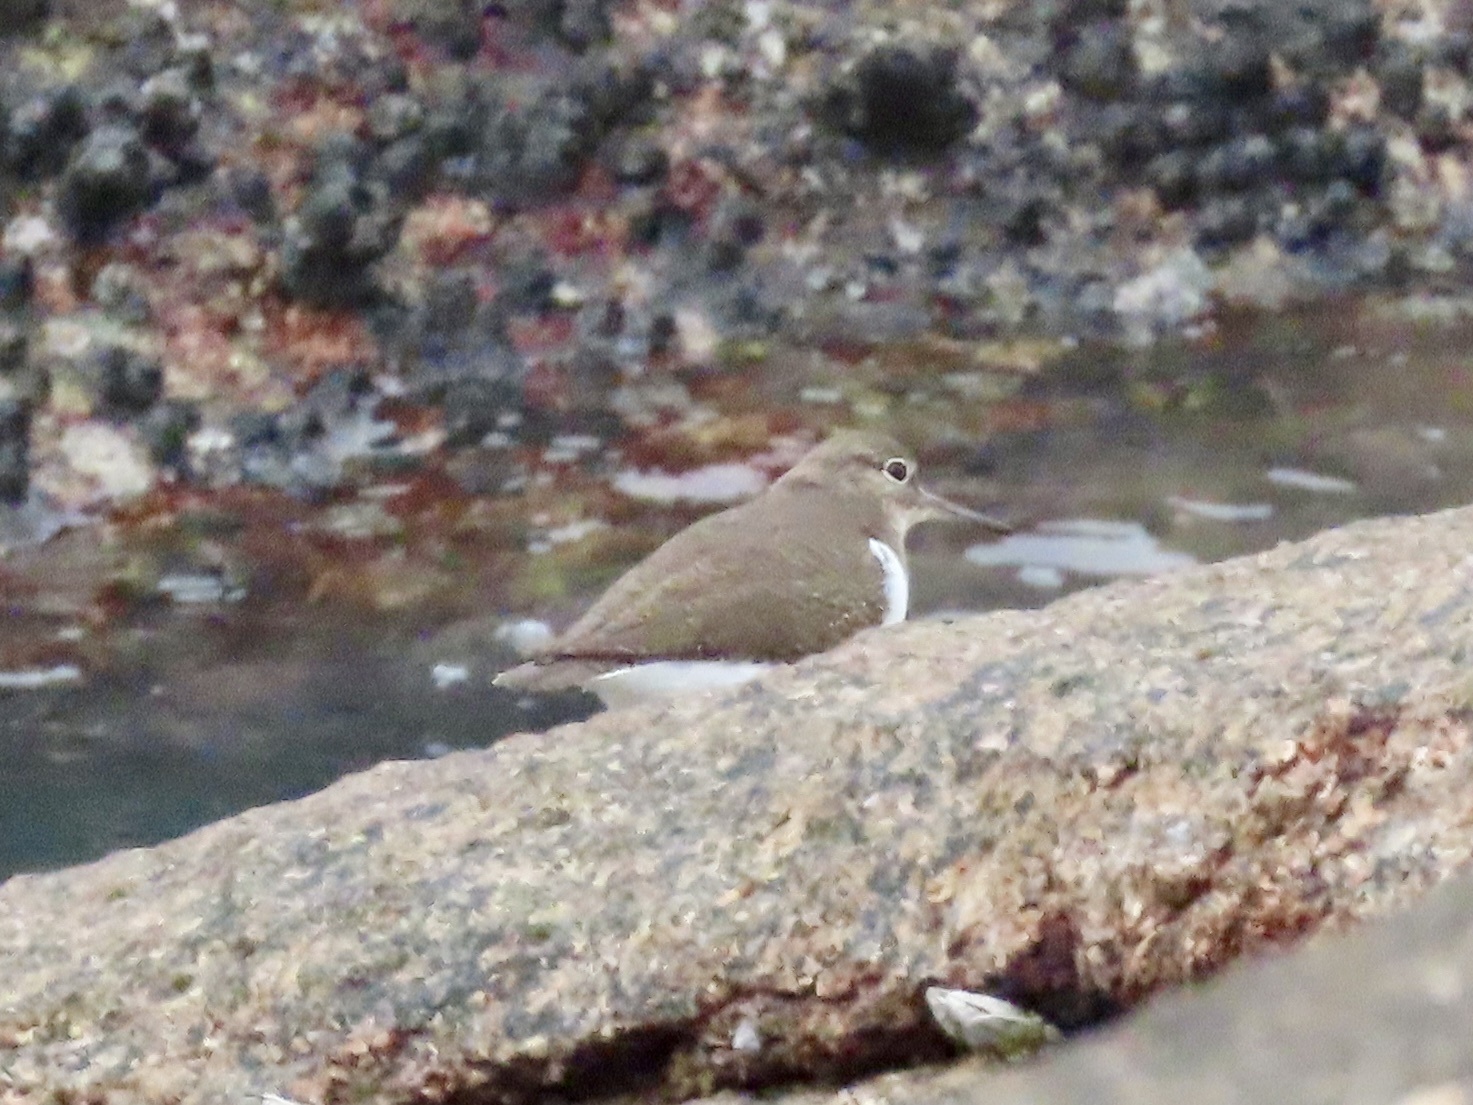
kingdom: Animalia
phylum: Chordata
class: Aves
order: Charadriiformes
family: Scolopacidae
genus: Actitis
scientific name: Actitis hypoleucos
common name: Common sandpiper
